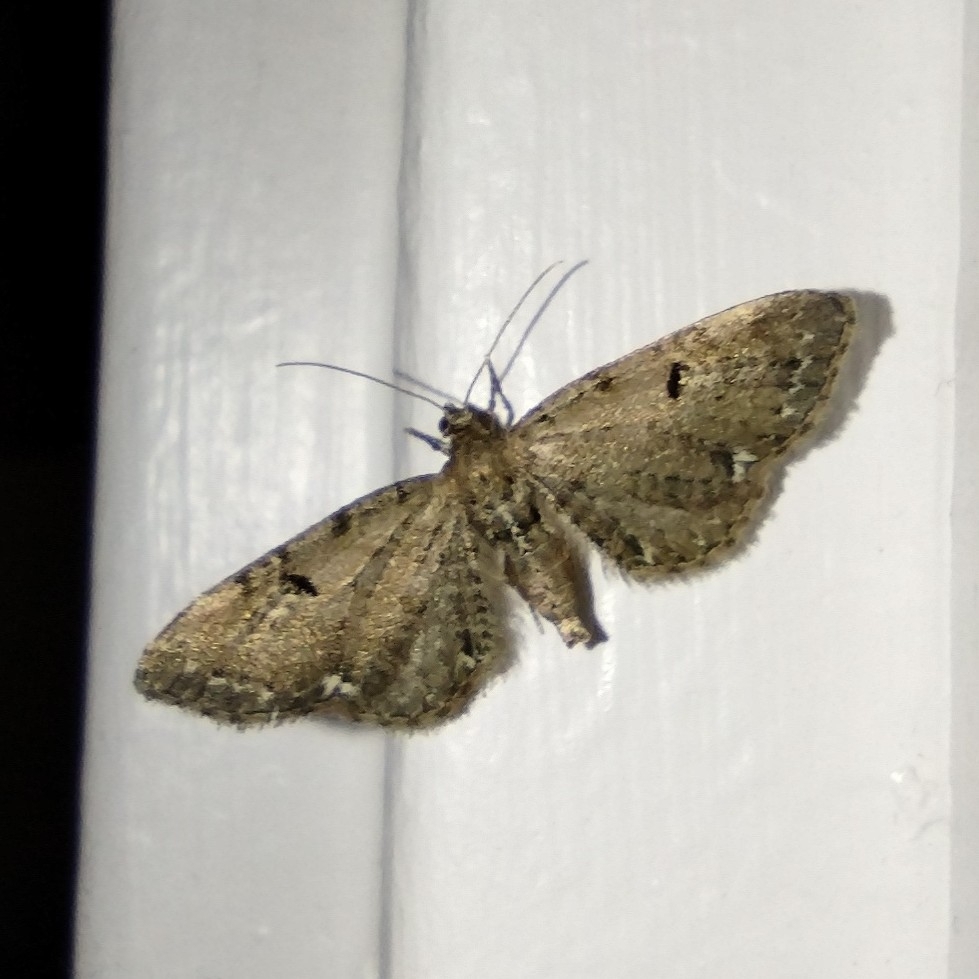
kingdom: Animalia
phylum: Arthropoda
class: Insecta
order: Lepidoptera
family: Geometridae
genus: Eupithecia
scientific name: Eupithecia assimilata
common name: Currant pug
